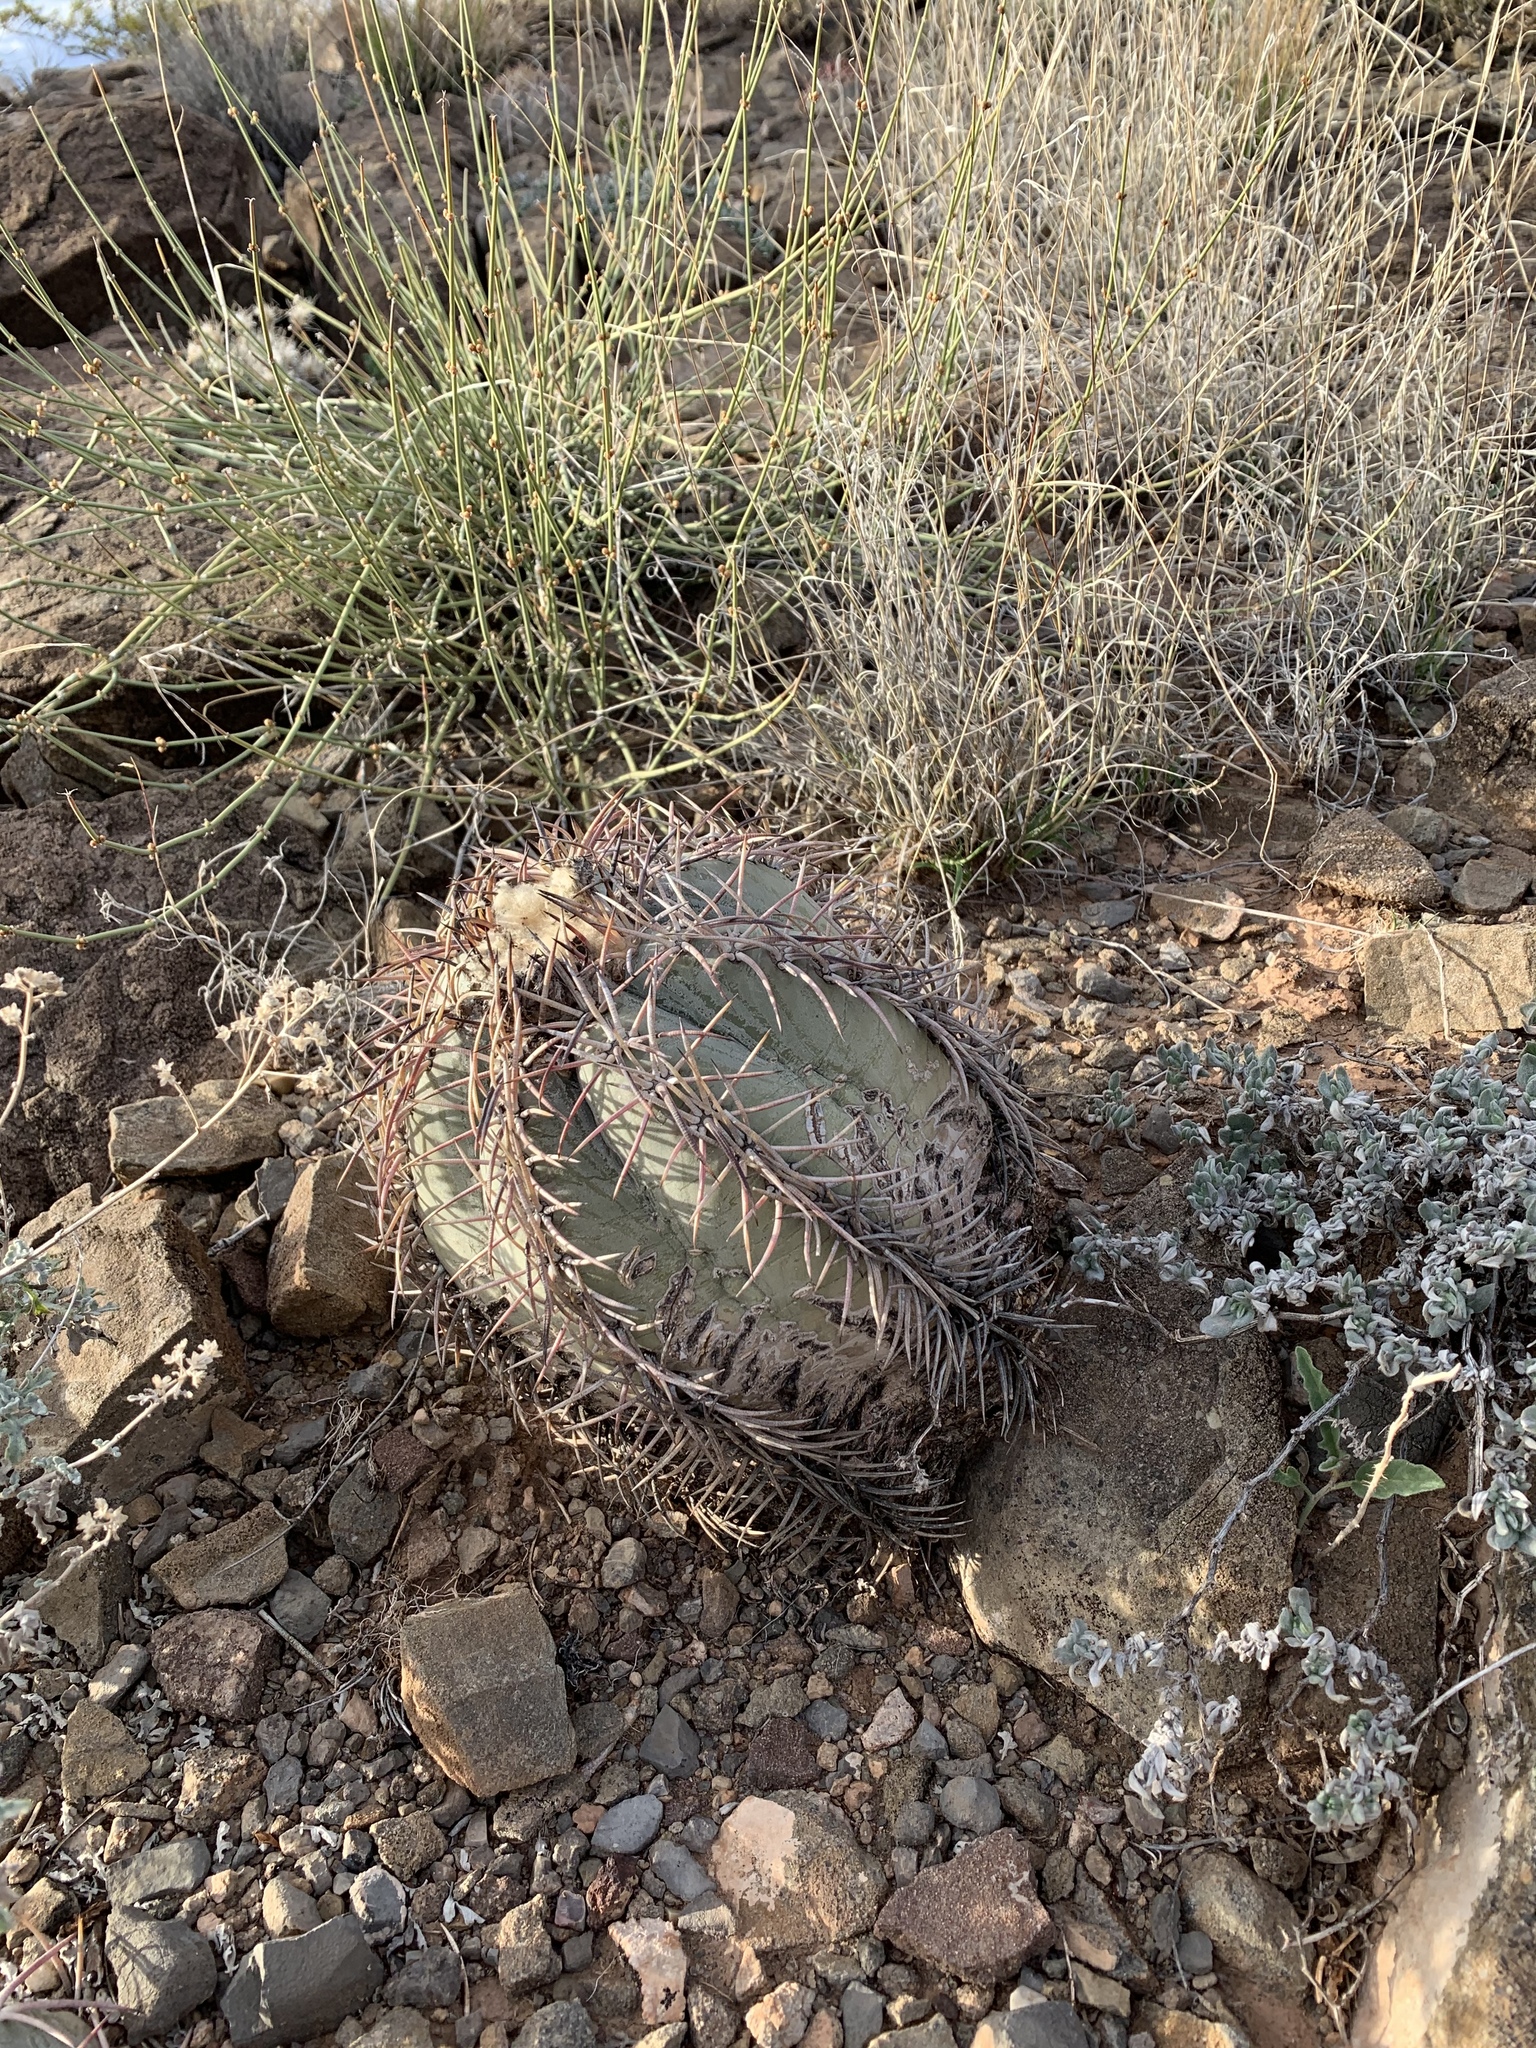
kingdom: Plantae
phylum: Tracheophyta
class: Magnoliopsida
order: Caryophyllales
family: Cactaceae
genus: Echinocactus
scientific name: Echinocactus horizonthalonius
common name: Devilshead
